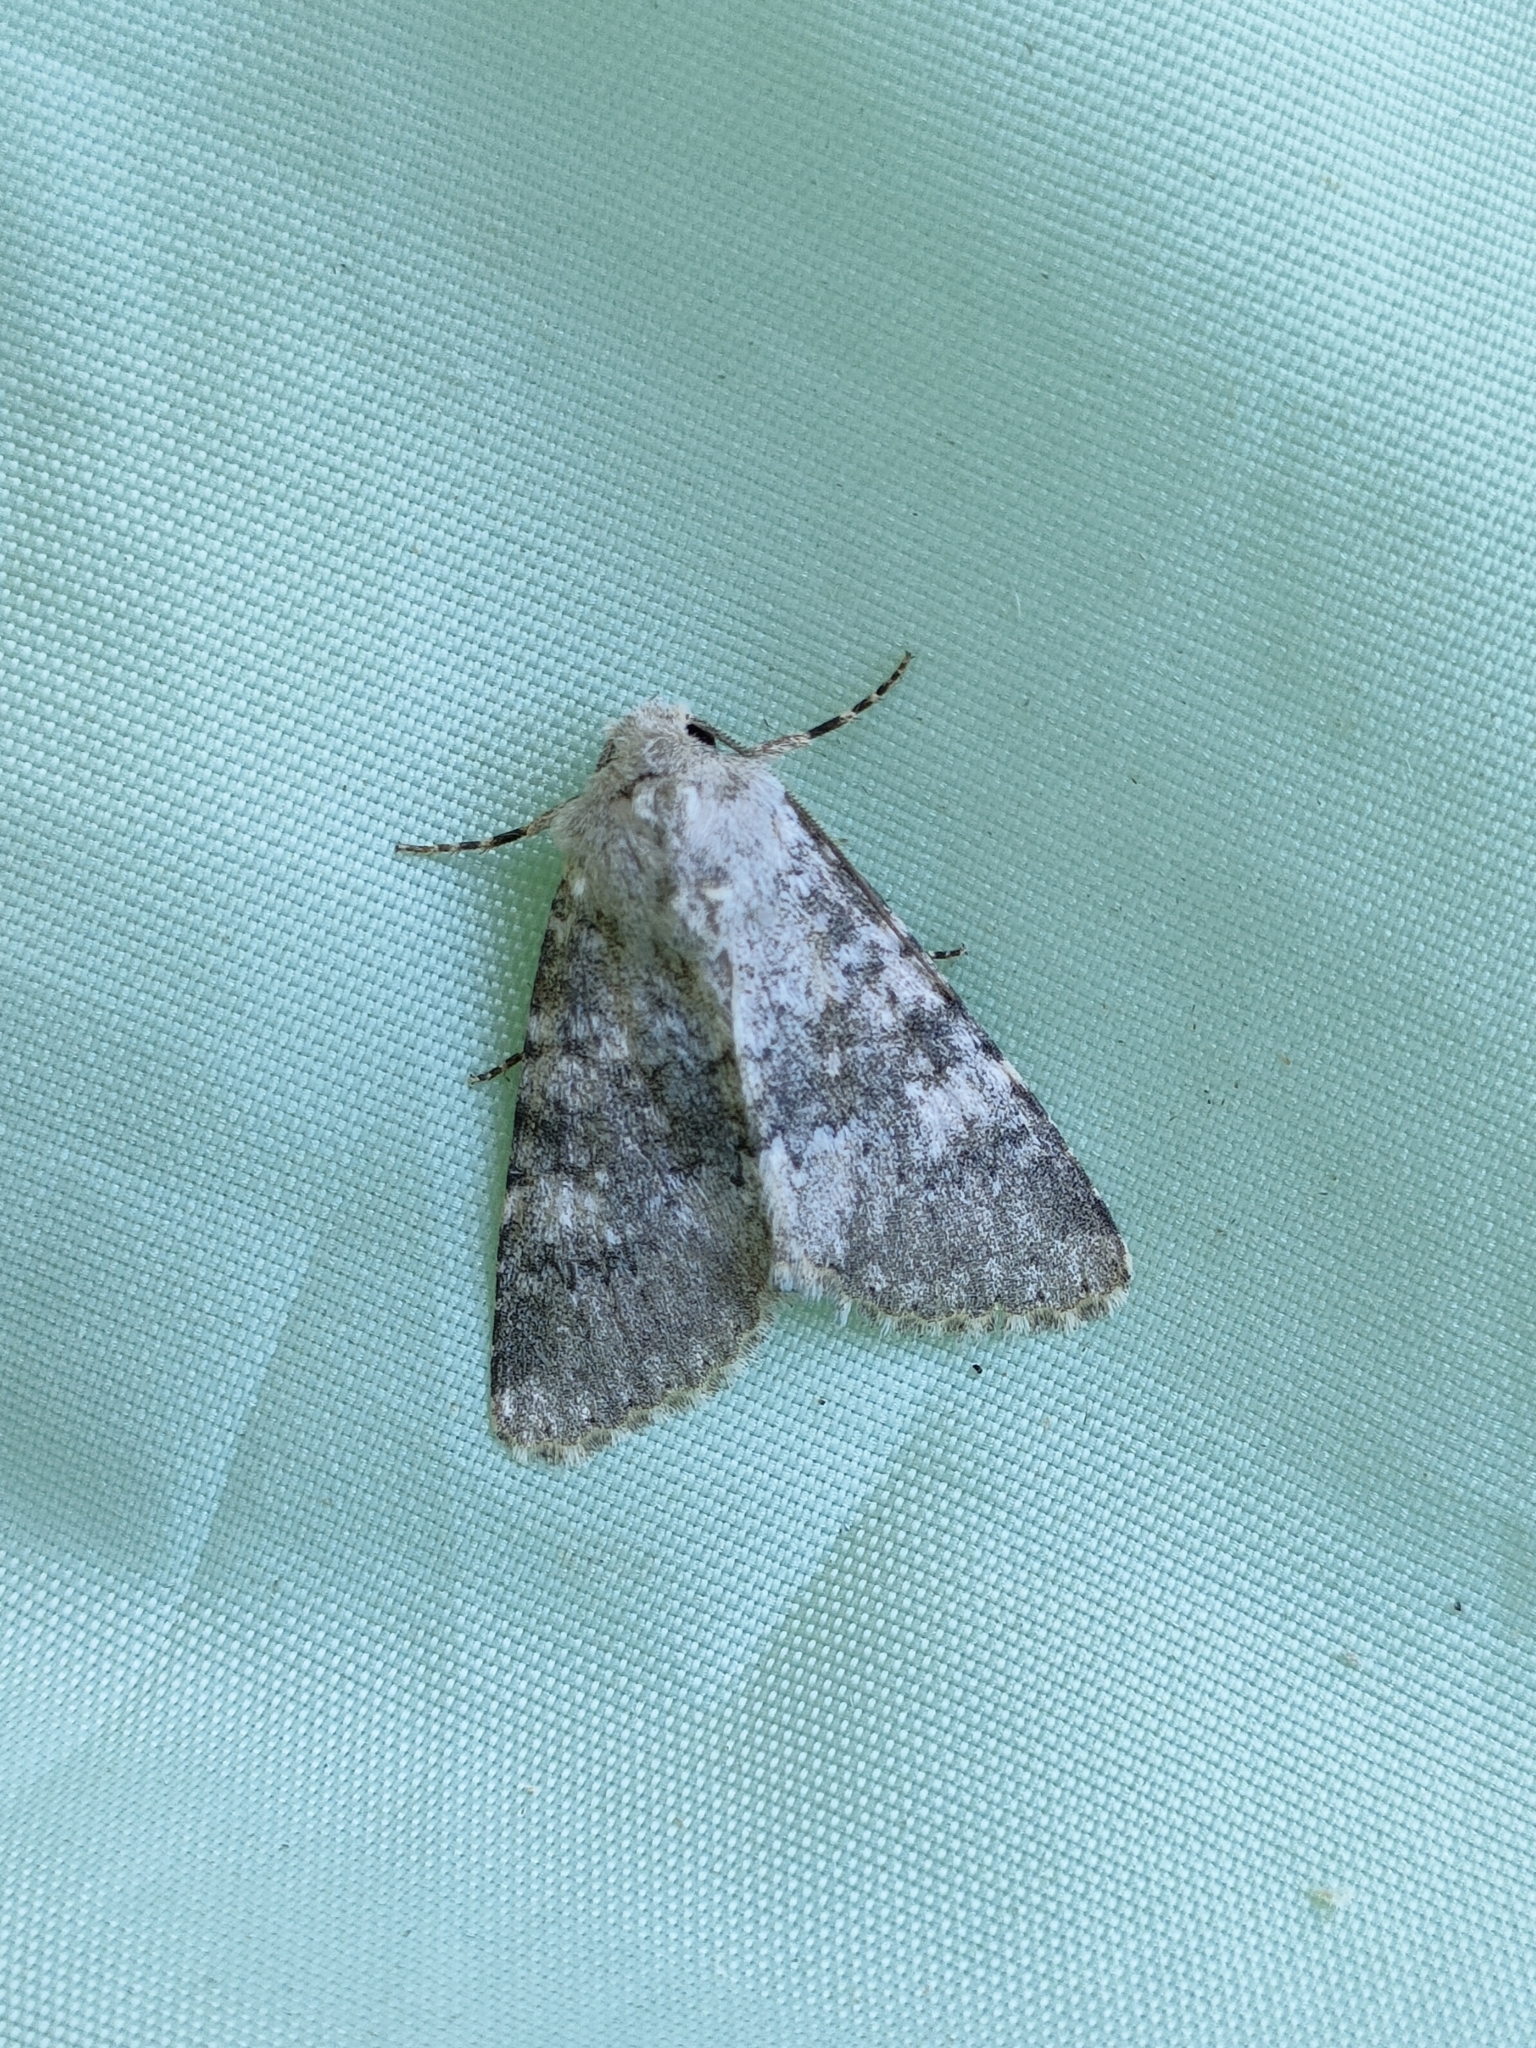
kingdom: Animalia
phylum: Arthropoda
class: Insecta
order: Lepidoptera
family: Noctuidae
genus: Polymixis
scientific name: Polymixis dubia
